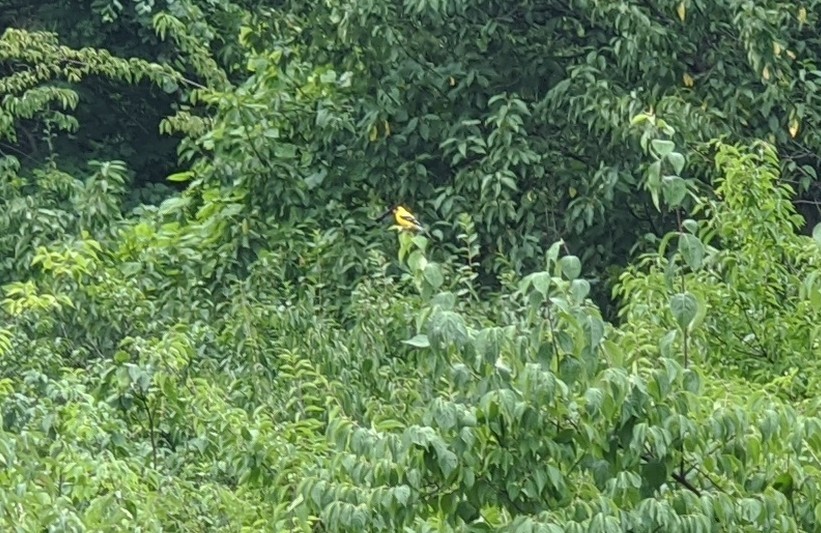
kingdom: Animalia
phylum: Chordata
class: Aves
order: Passeriformes
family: Fringillidae
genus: Spinus
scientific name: Spinus tristis
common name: American goldfinch
